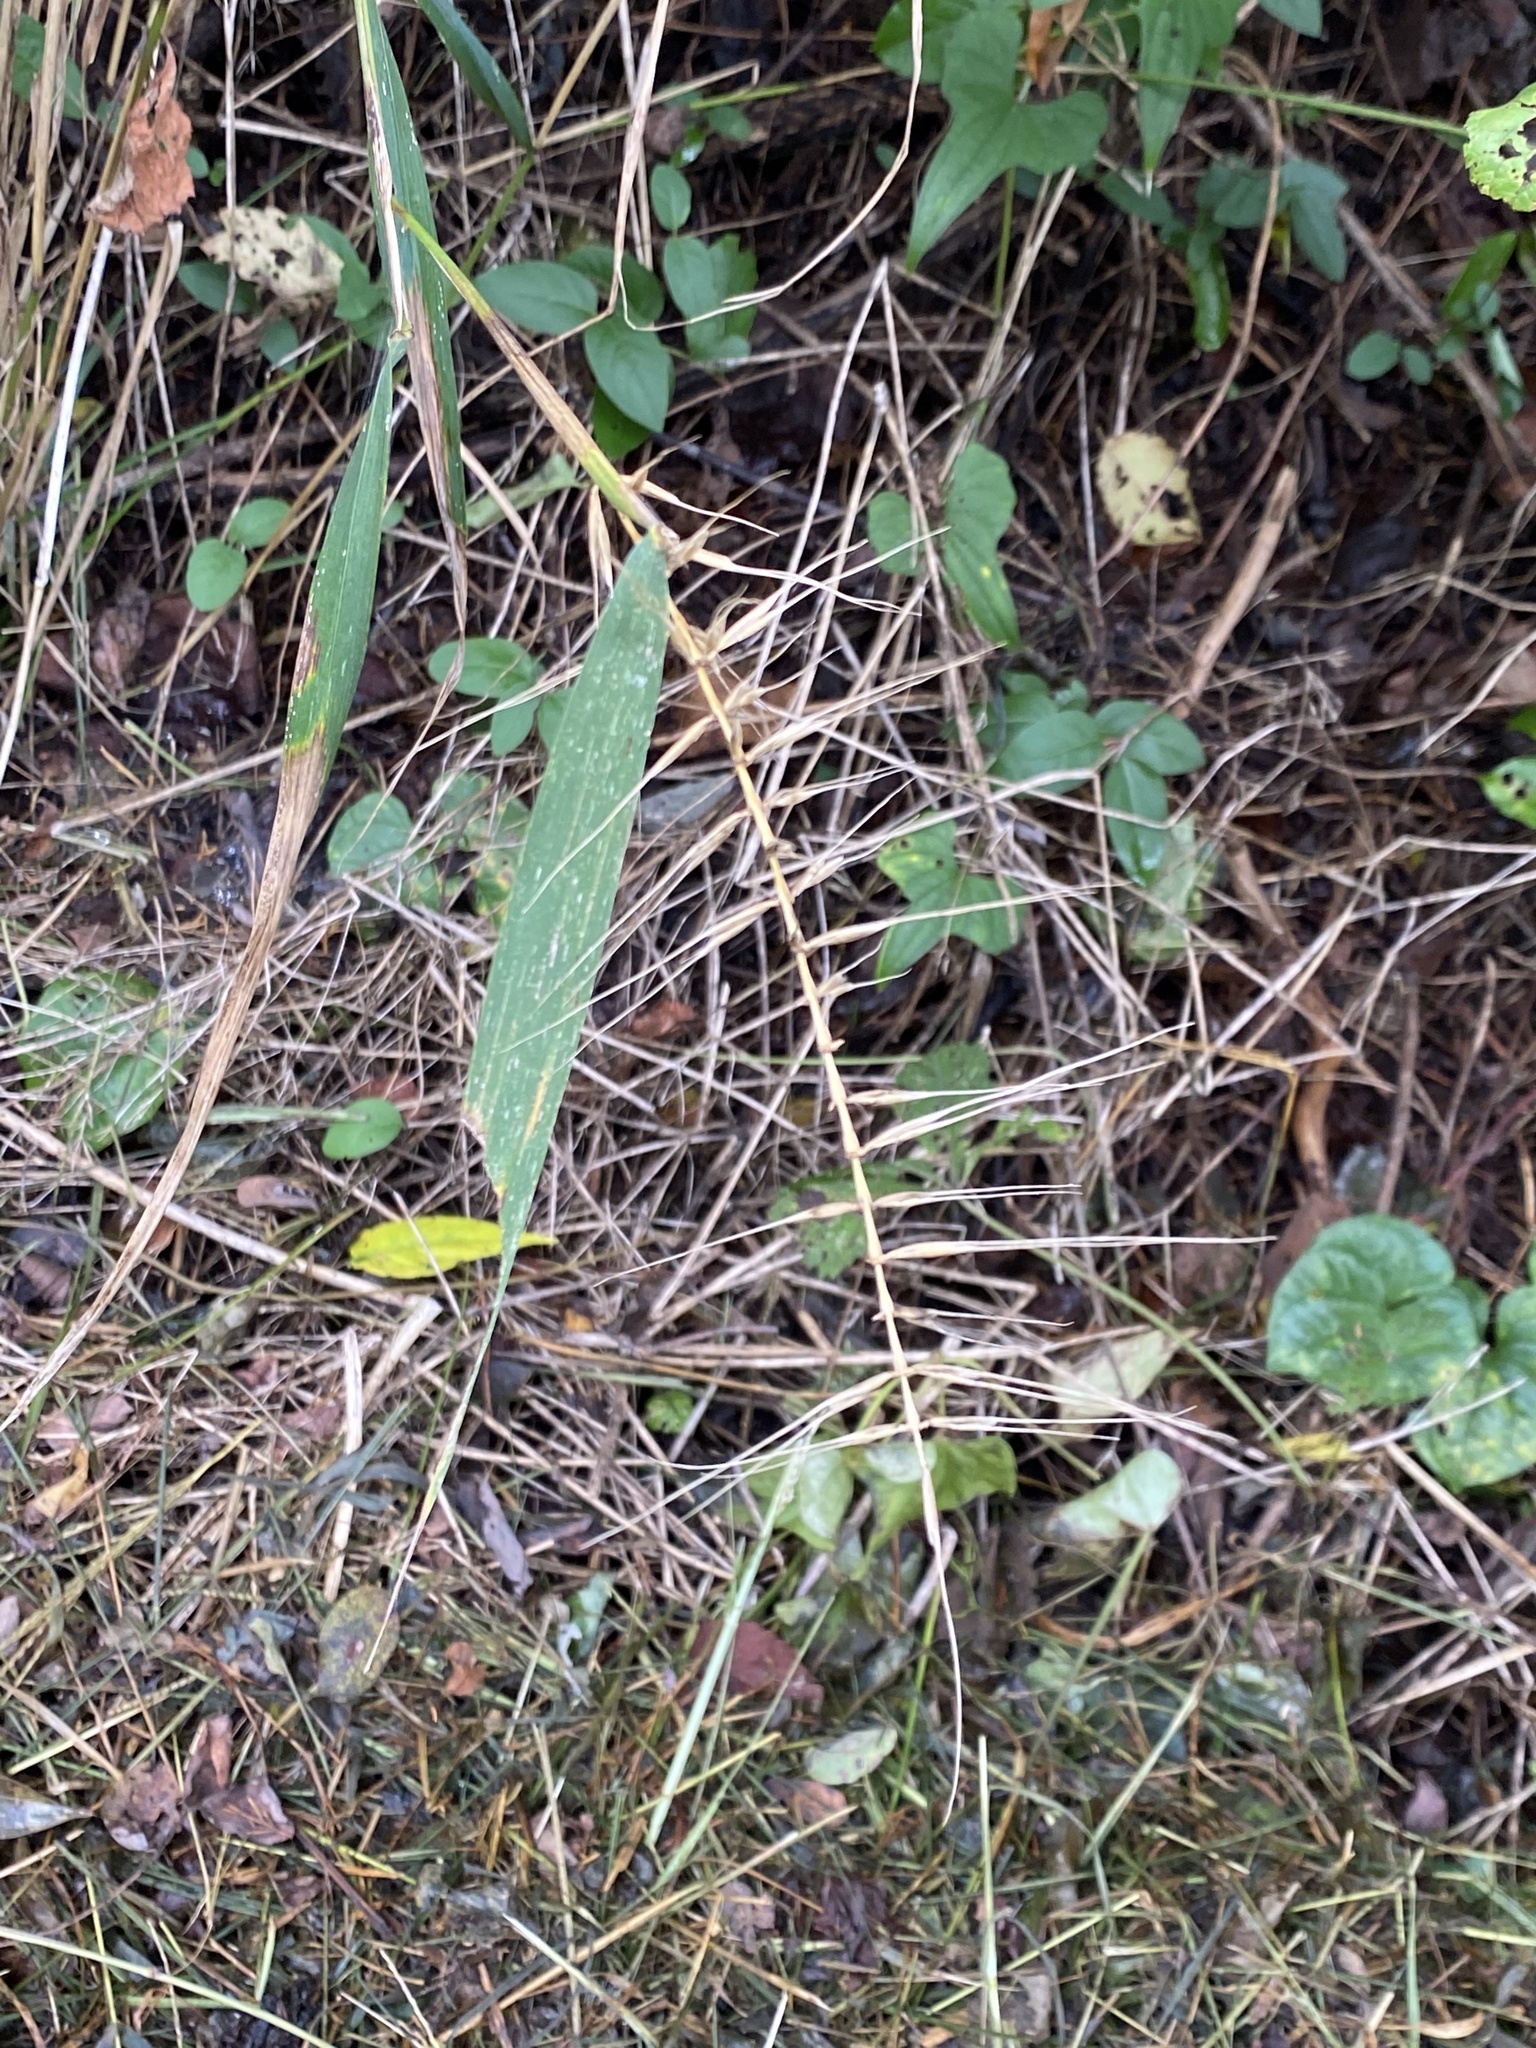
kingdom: Plantae
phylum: Tracheophyta
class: Liliopsida
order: Poales
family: Poaceae
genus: Elymus
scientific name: Elymus hystrix
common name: Bottlebrush grass
